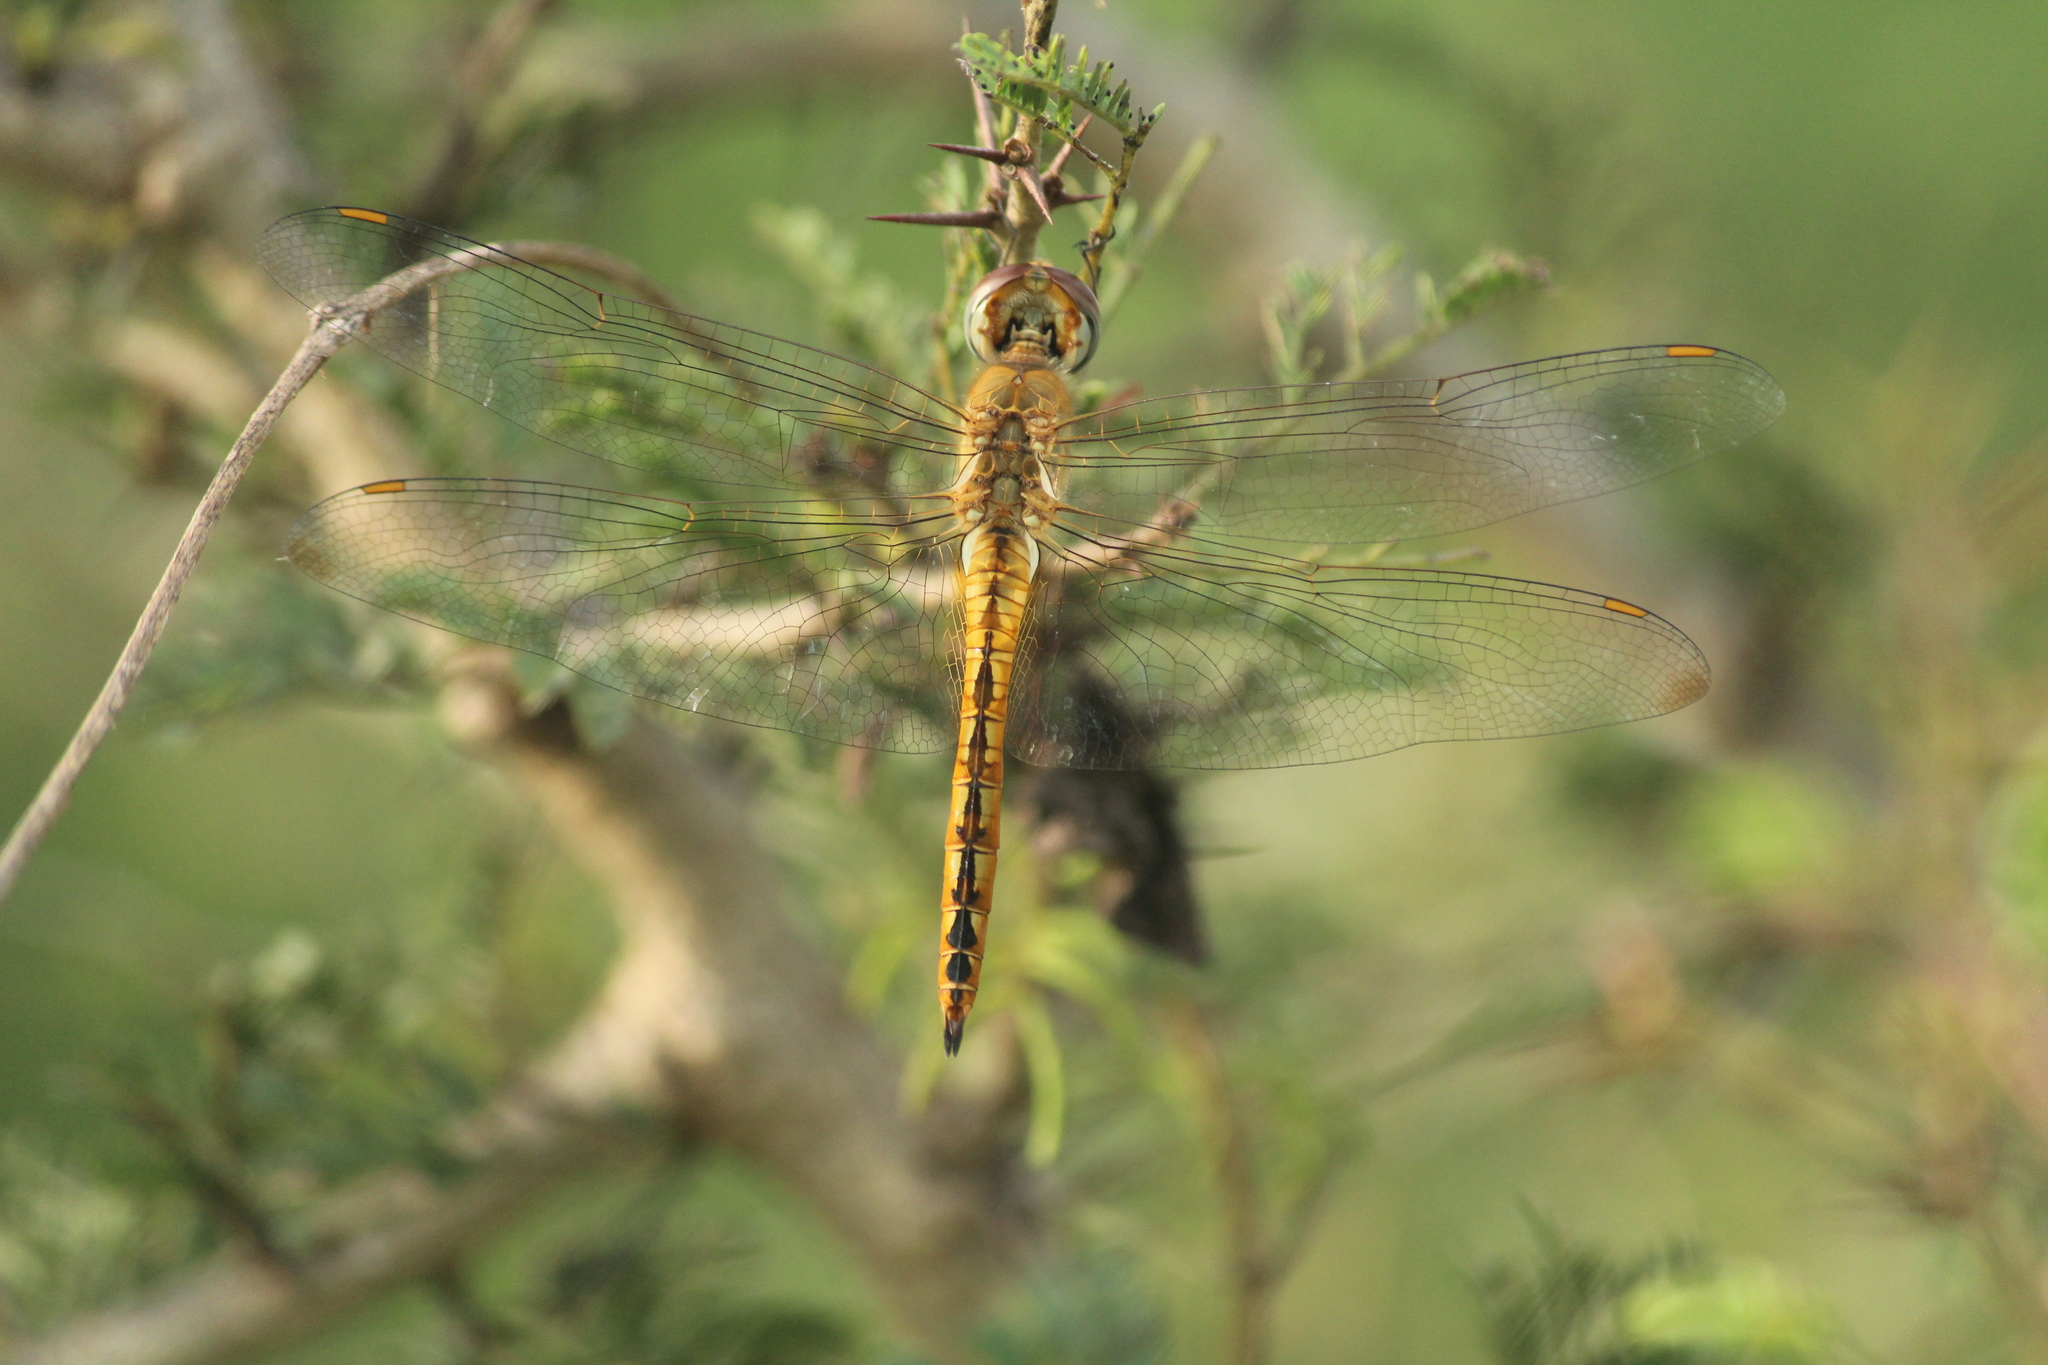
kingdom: Animalia
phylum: Arthropoda
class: Insecta
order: Odonata
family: Libellulidae
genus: Pantala
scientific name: Pantala flavescens
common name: Wandering glider
